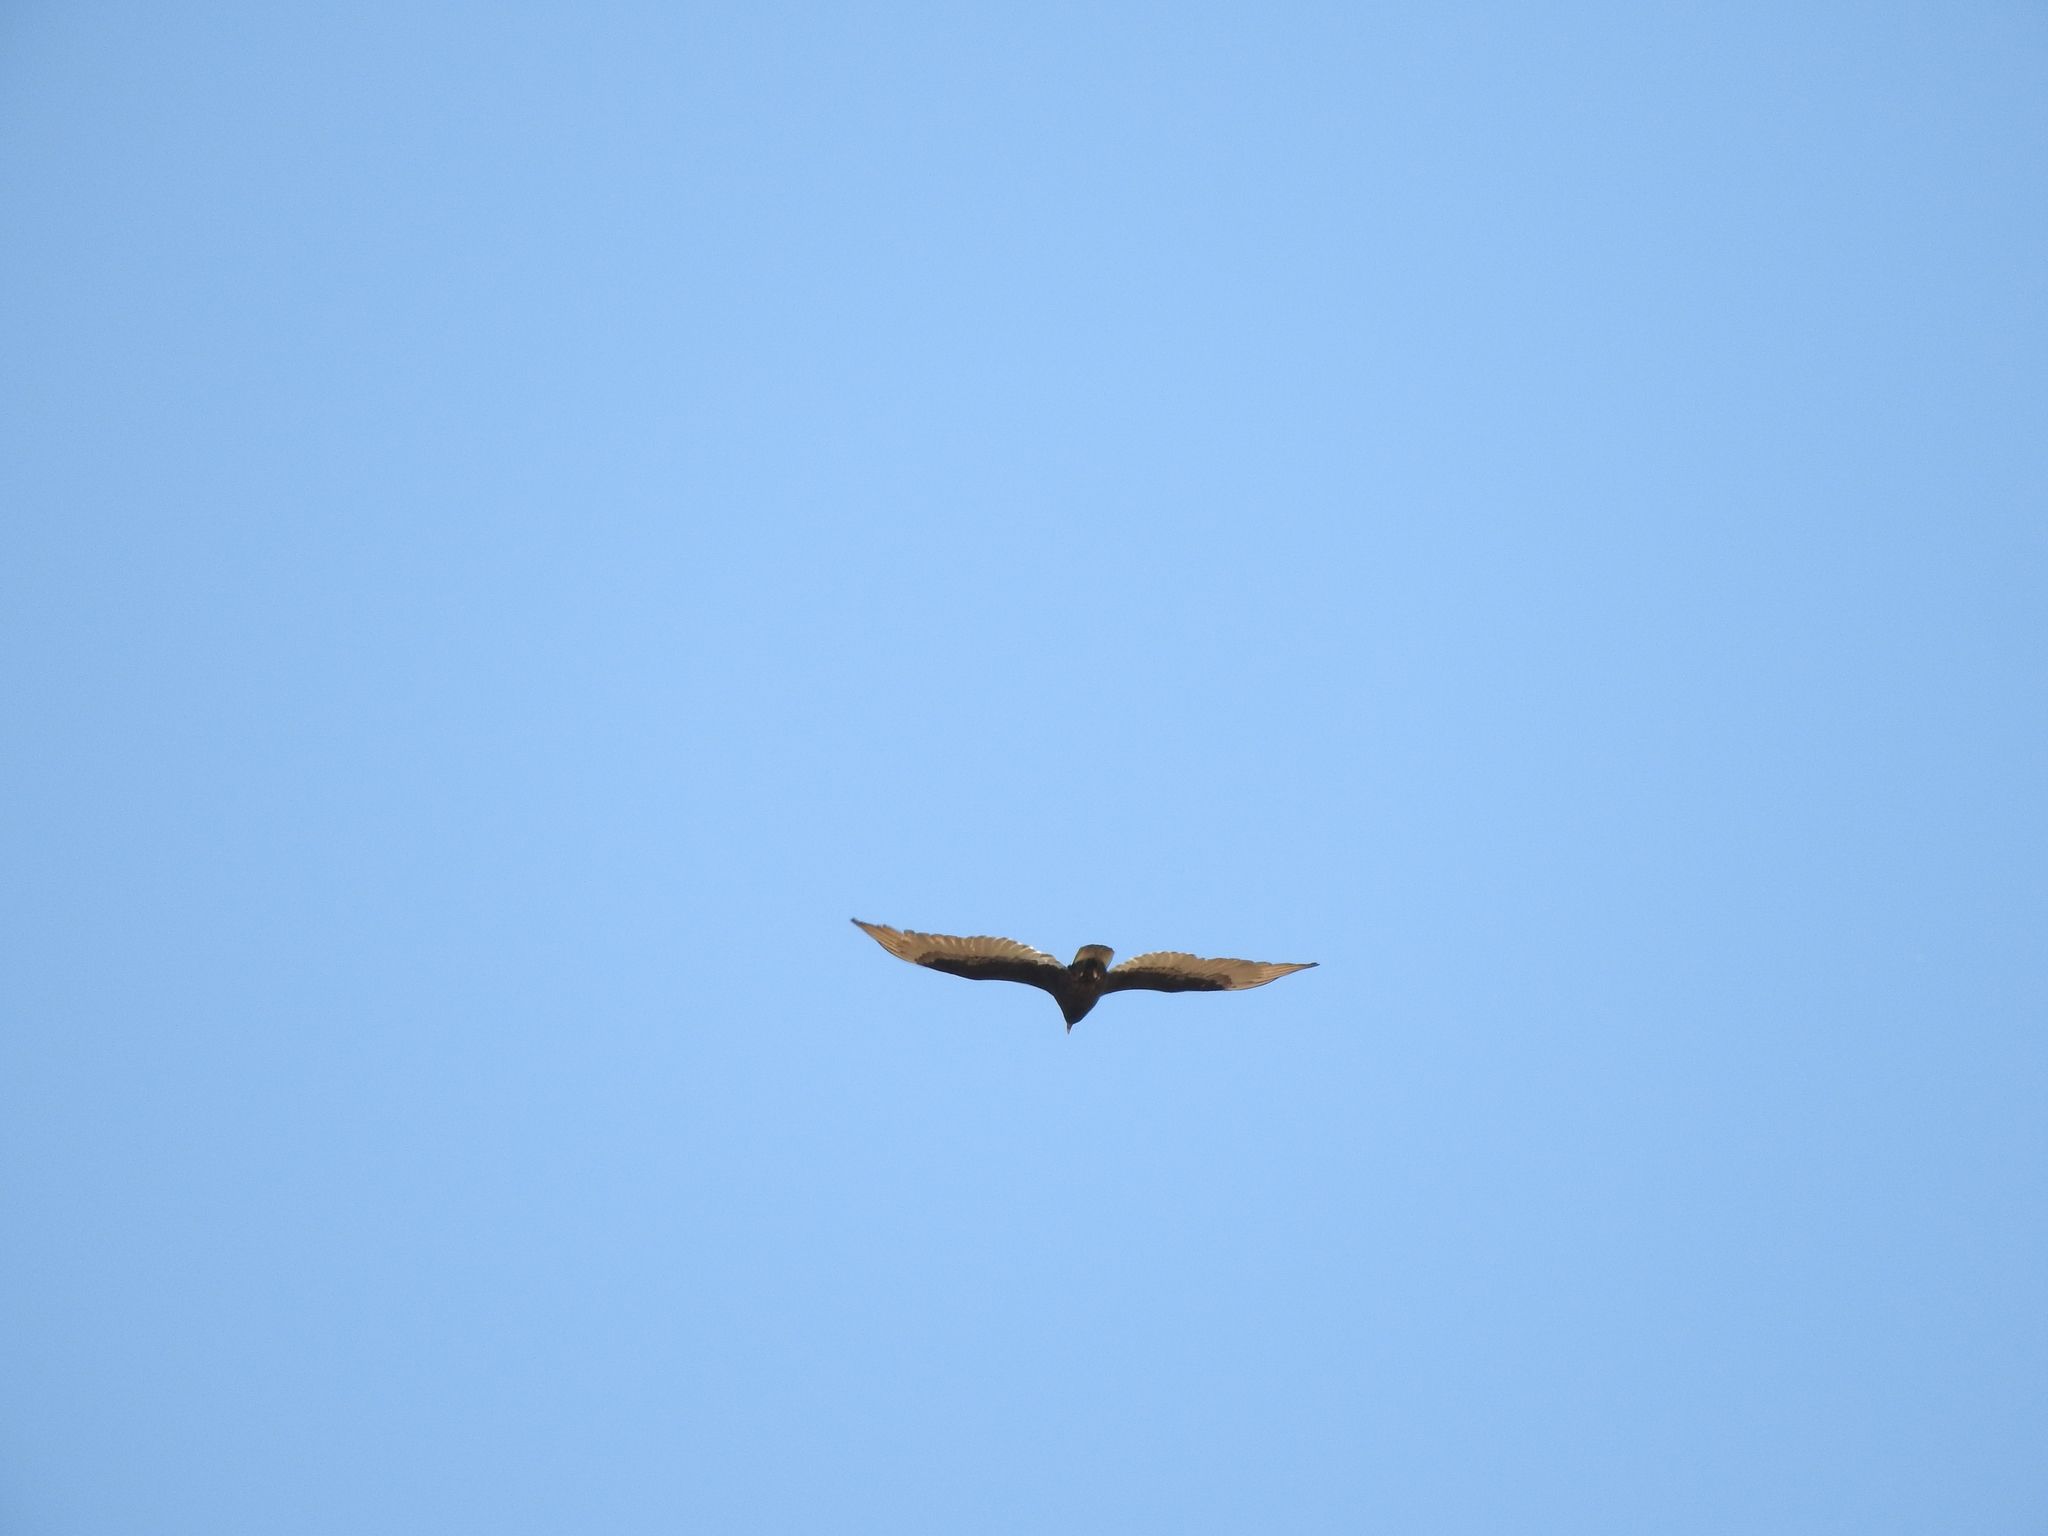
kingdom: Animalia
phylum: Chordata
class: Aves
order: Accipitriformes
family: Cathartidae
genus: Cathartes
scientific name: Cathartes aura
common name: Turkey vulture
